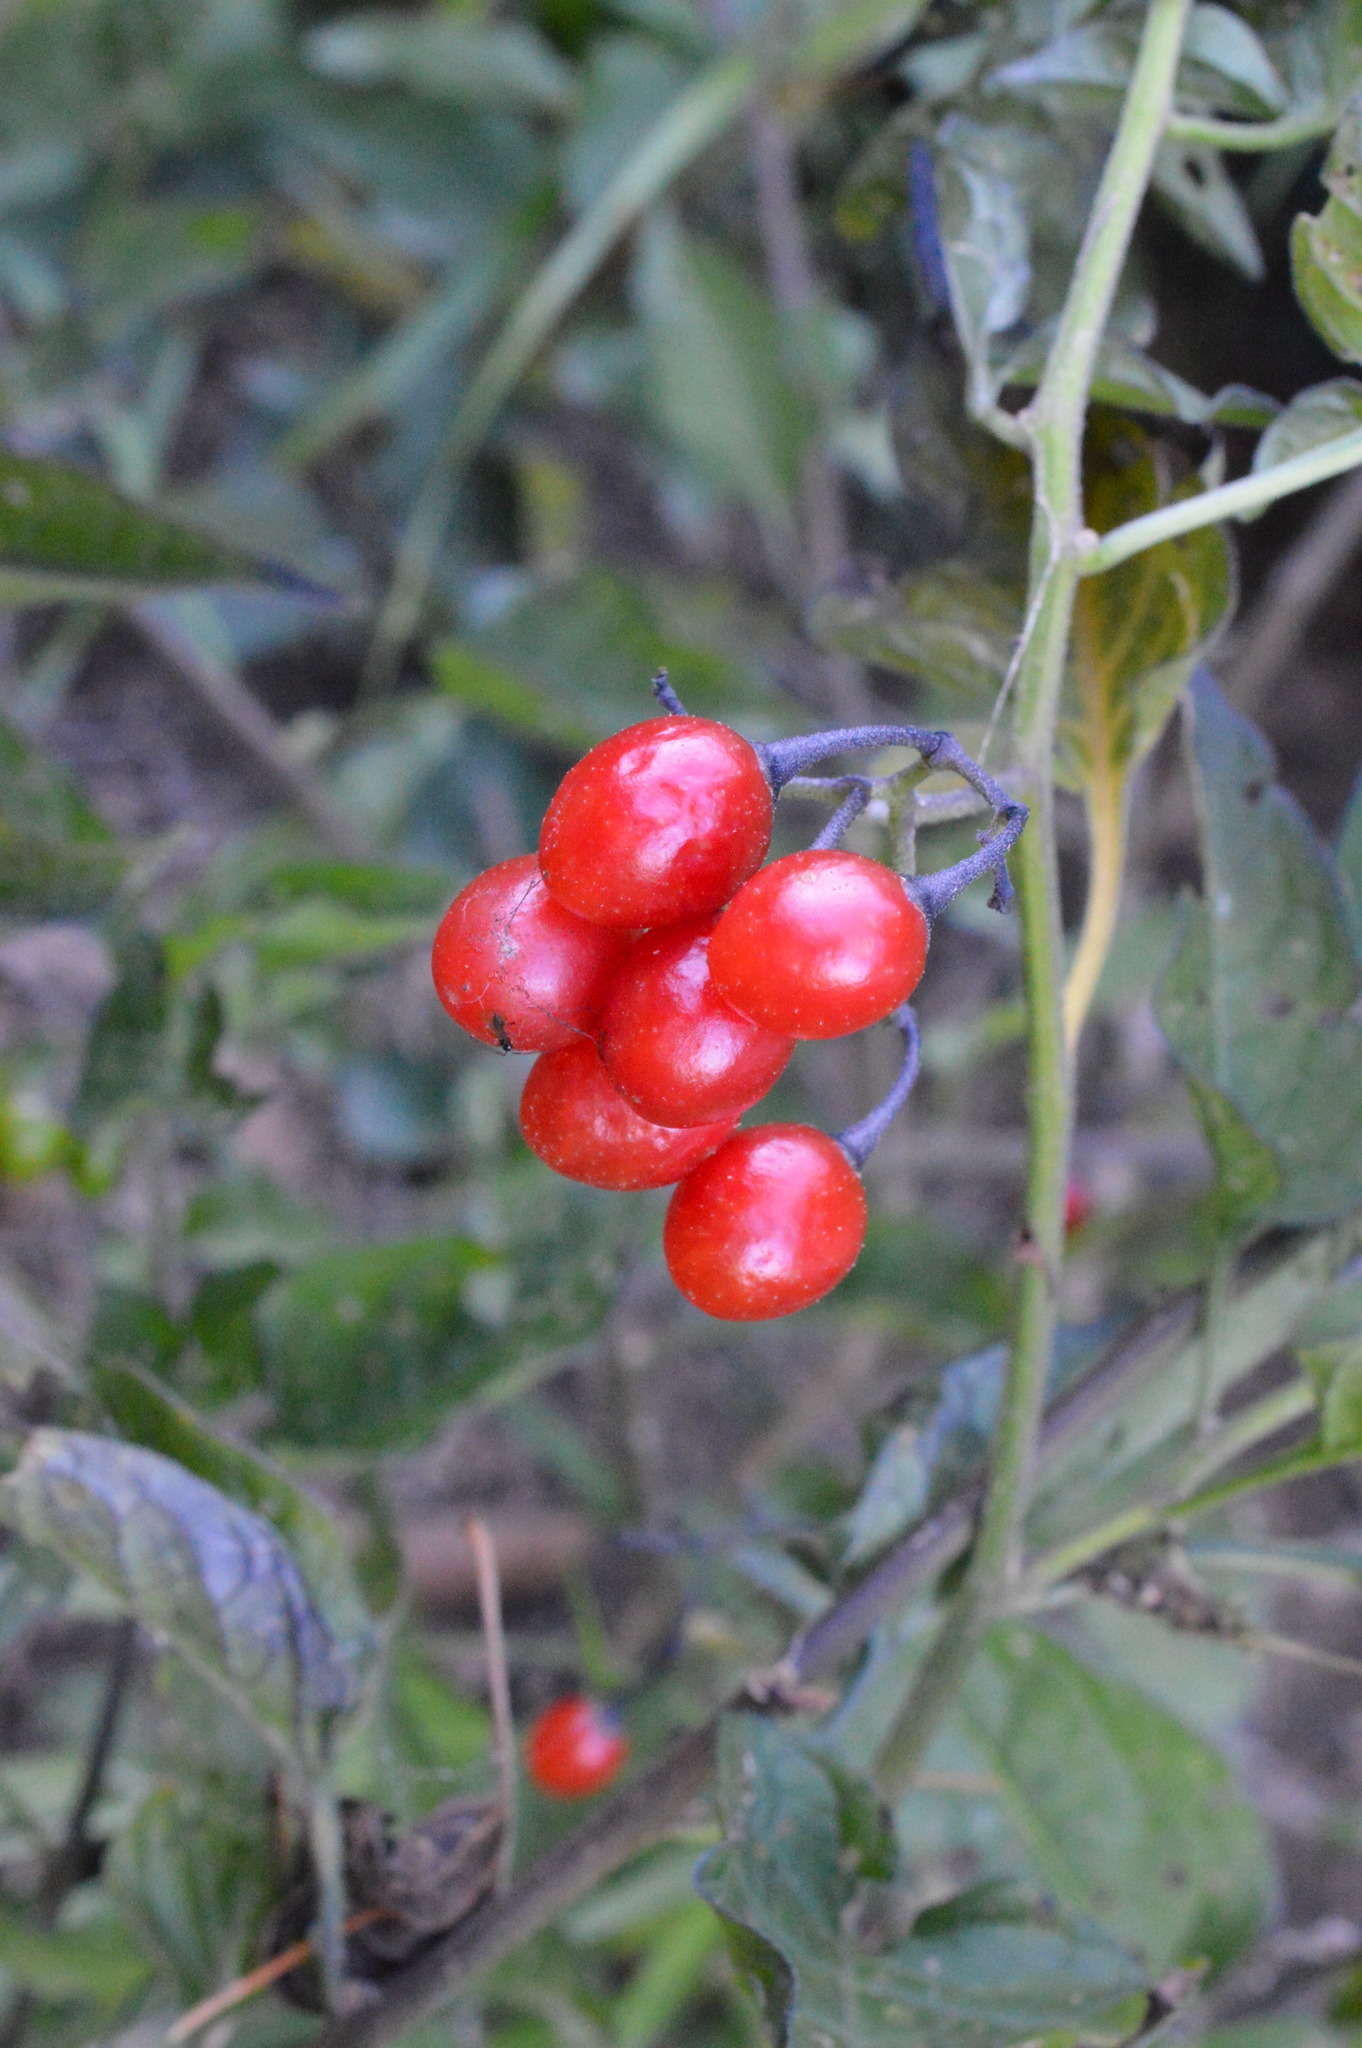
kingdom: Plantae
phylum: Tracheophyta
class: Magnoliopsida
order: Solanales
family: Solanaceae
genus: Solanum
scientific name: Solanum dulcamara
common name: Climbing nightshade
